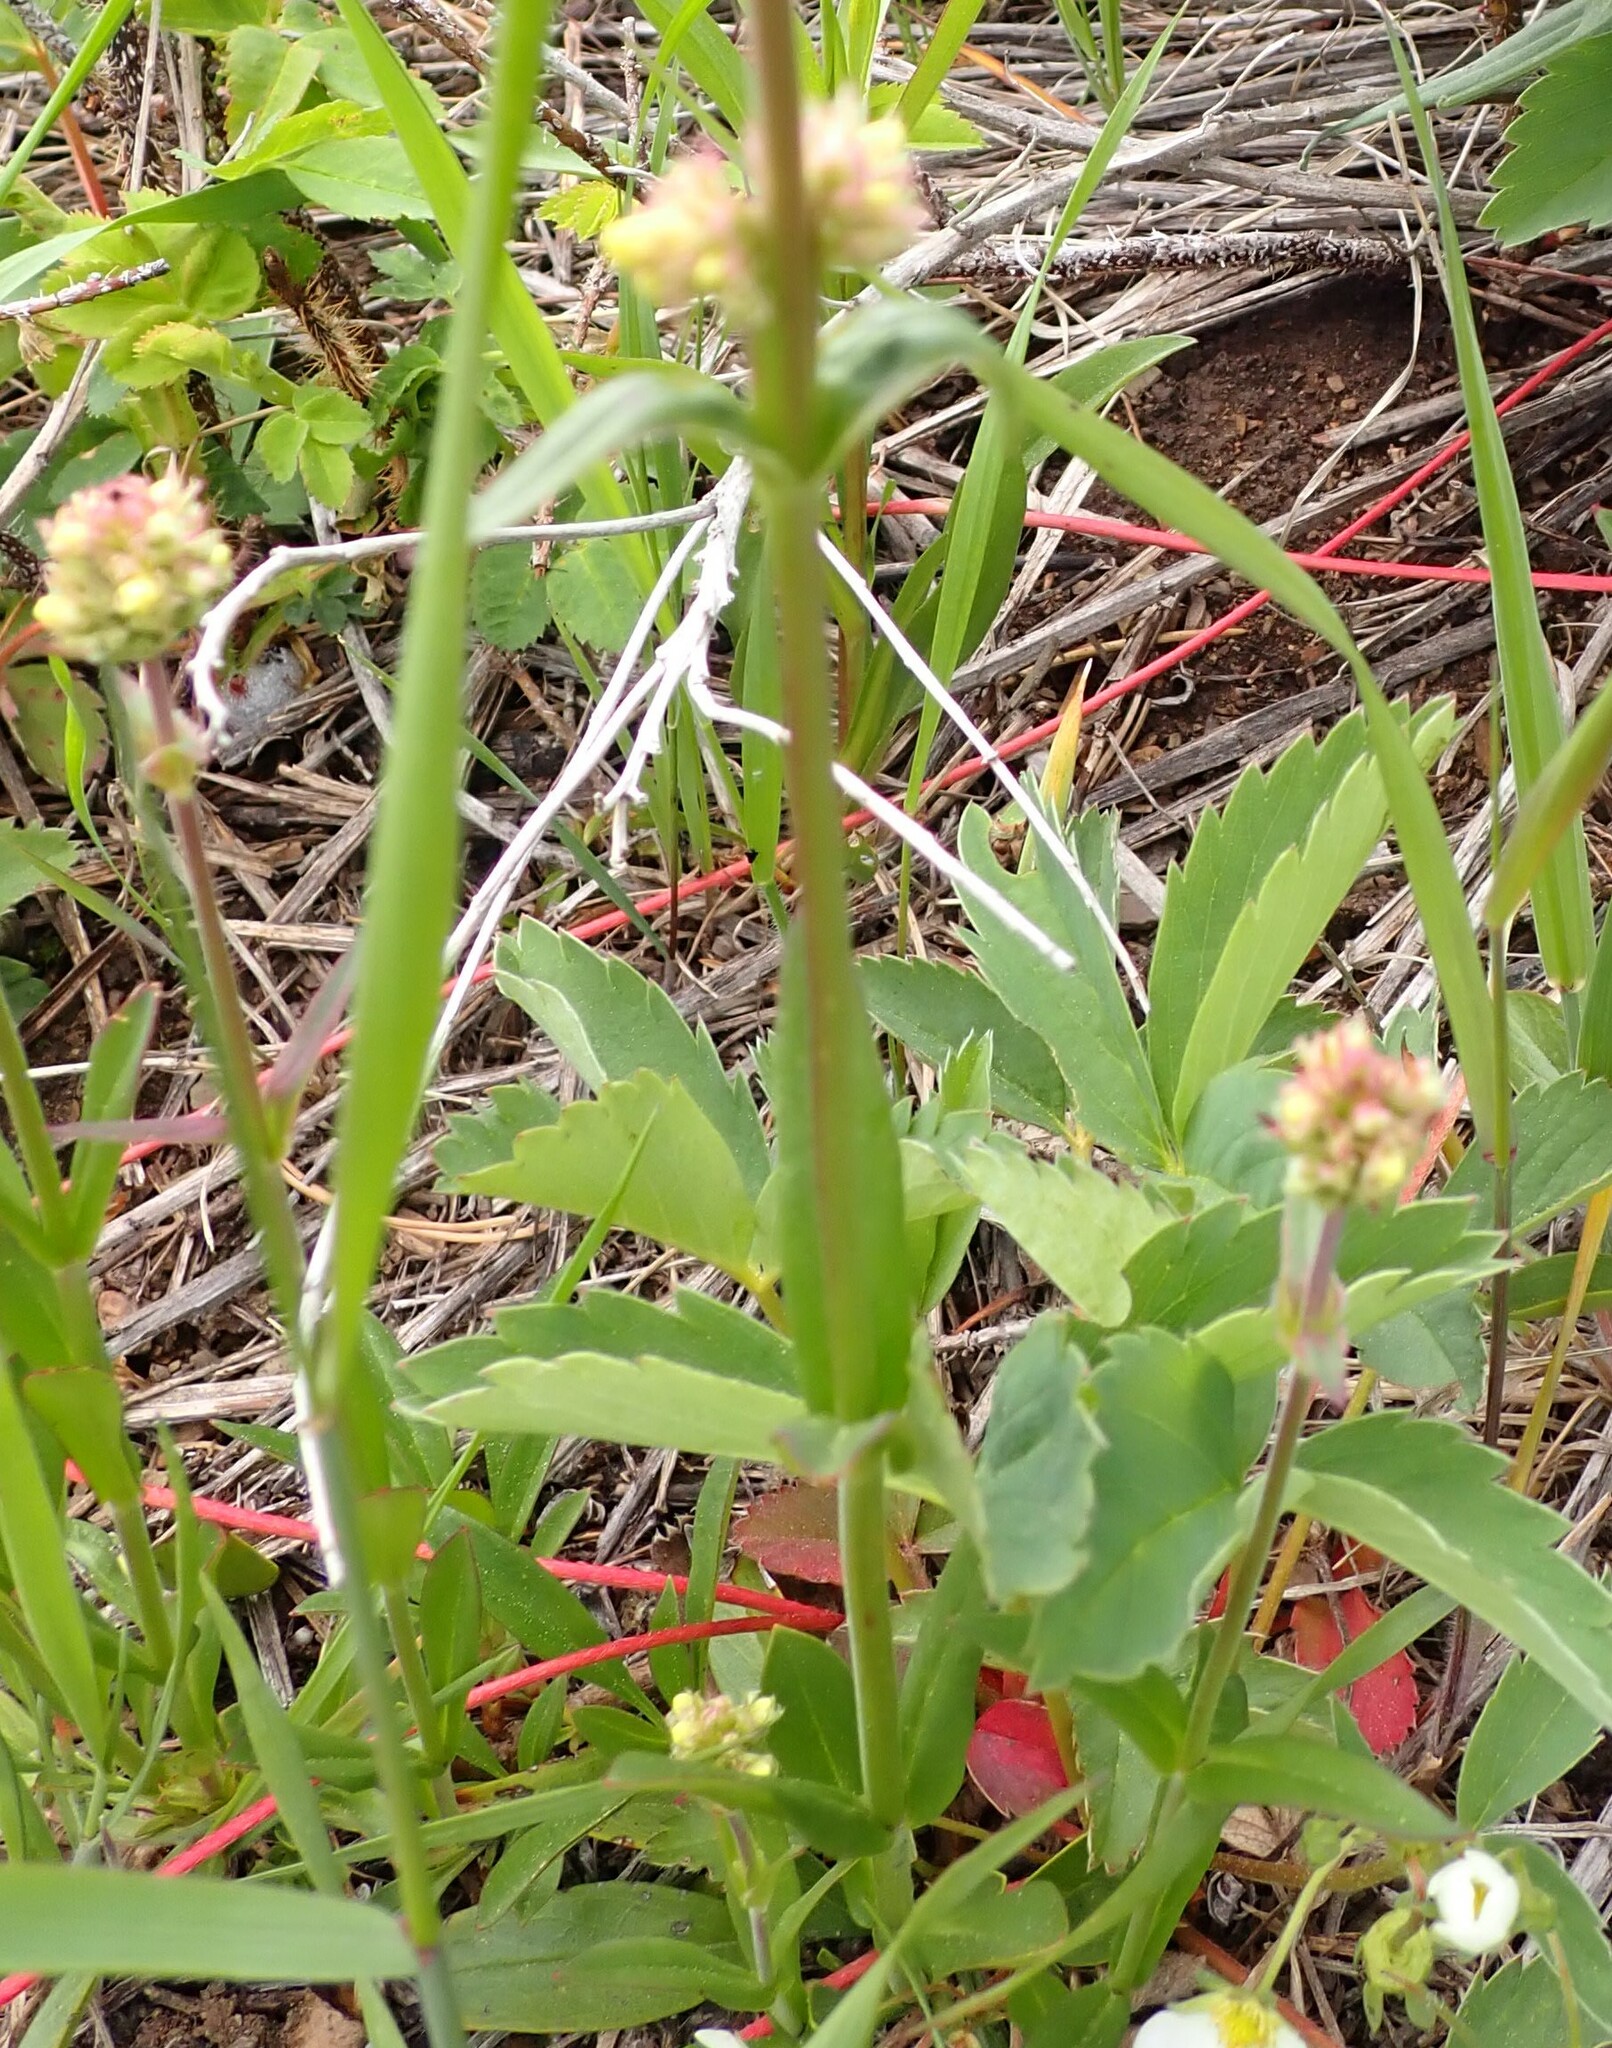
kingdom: Plantae
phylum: Tracheophyta
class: Magnoliopsida
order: Lamiales
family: Plantaginaceae
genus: Penstemon
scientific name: Penstemon confertus
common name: Lesser yellow beardtongue
